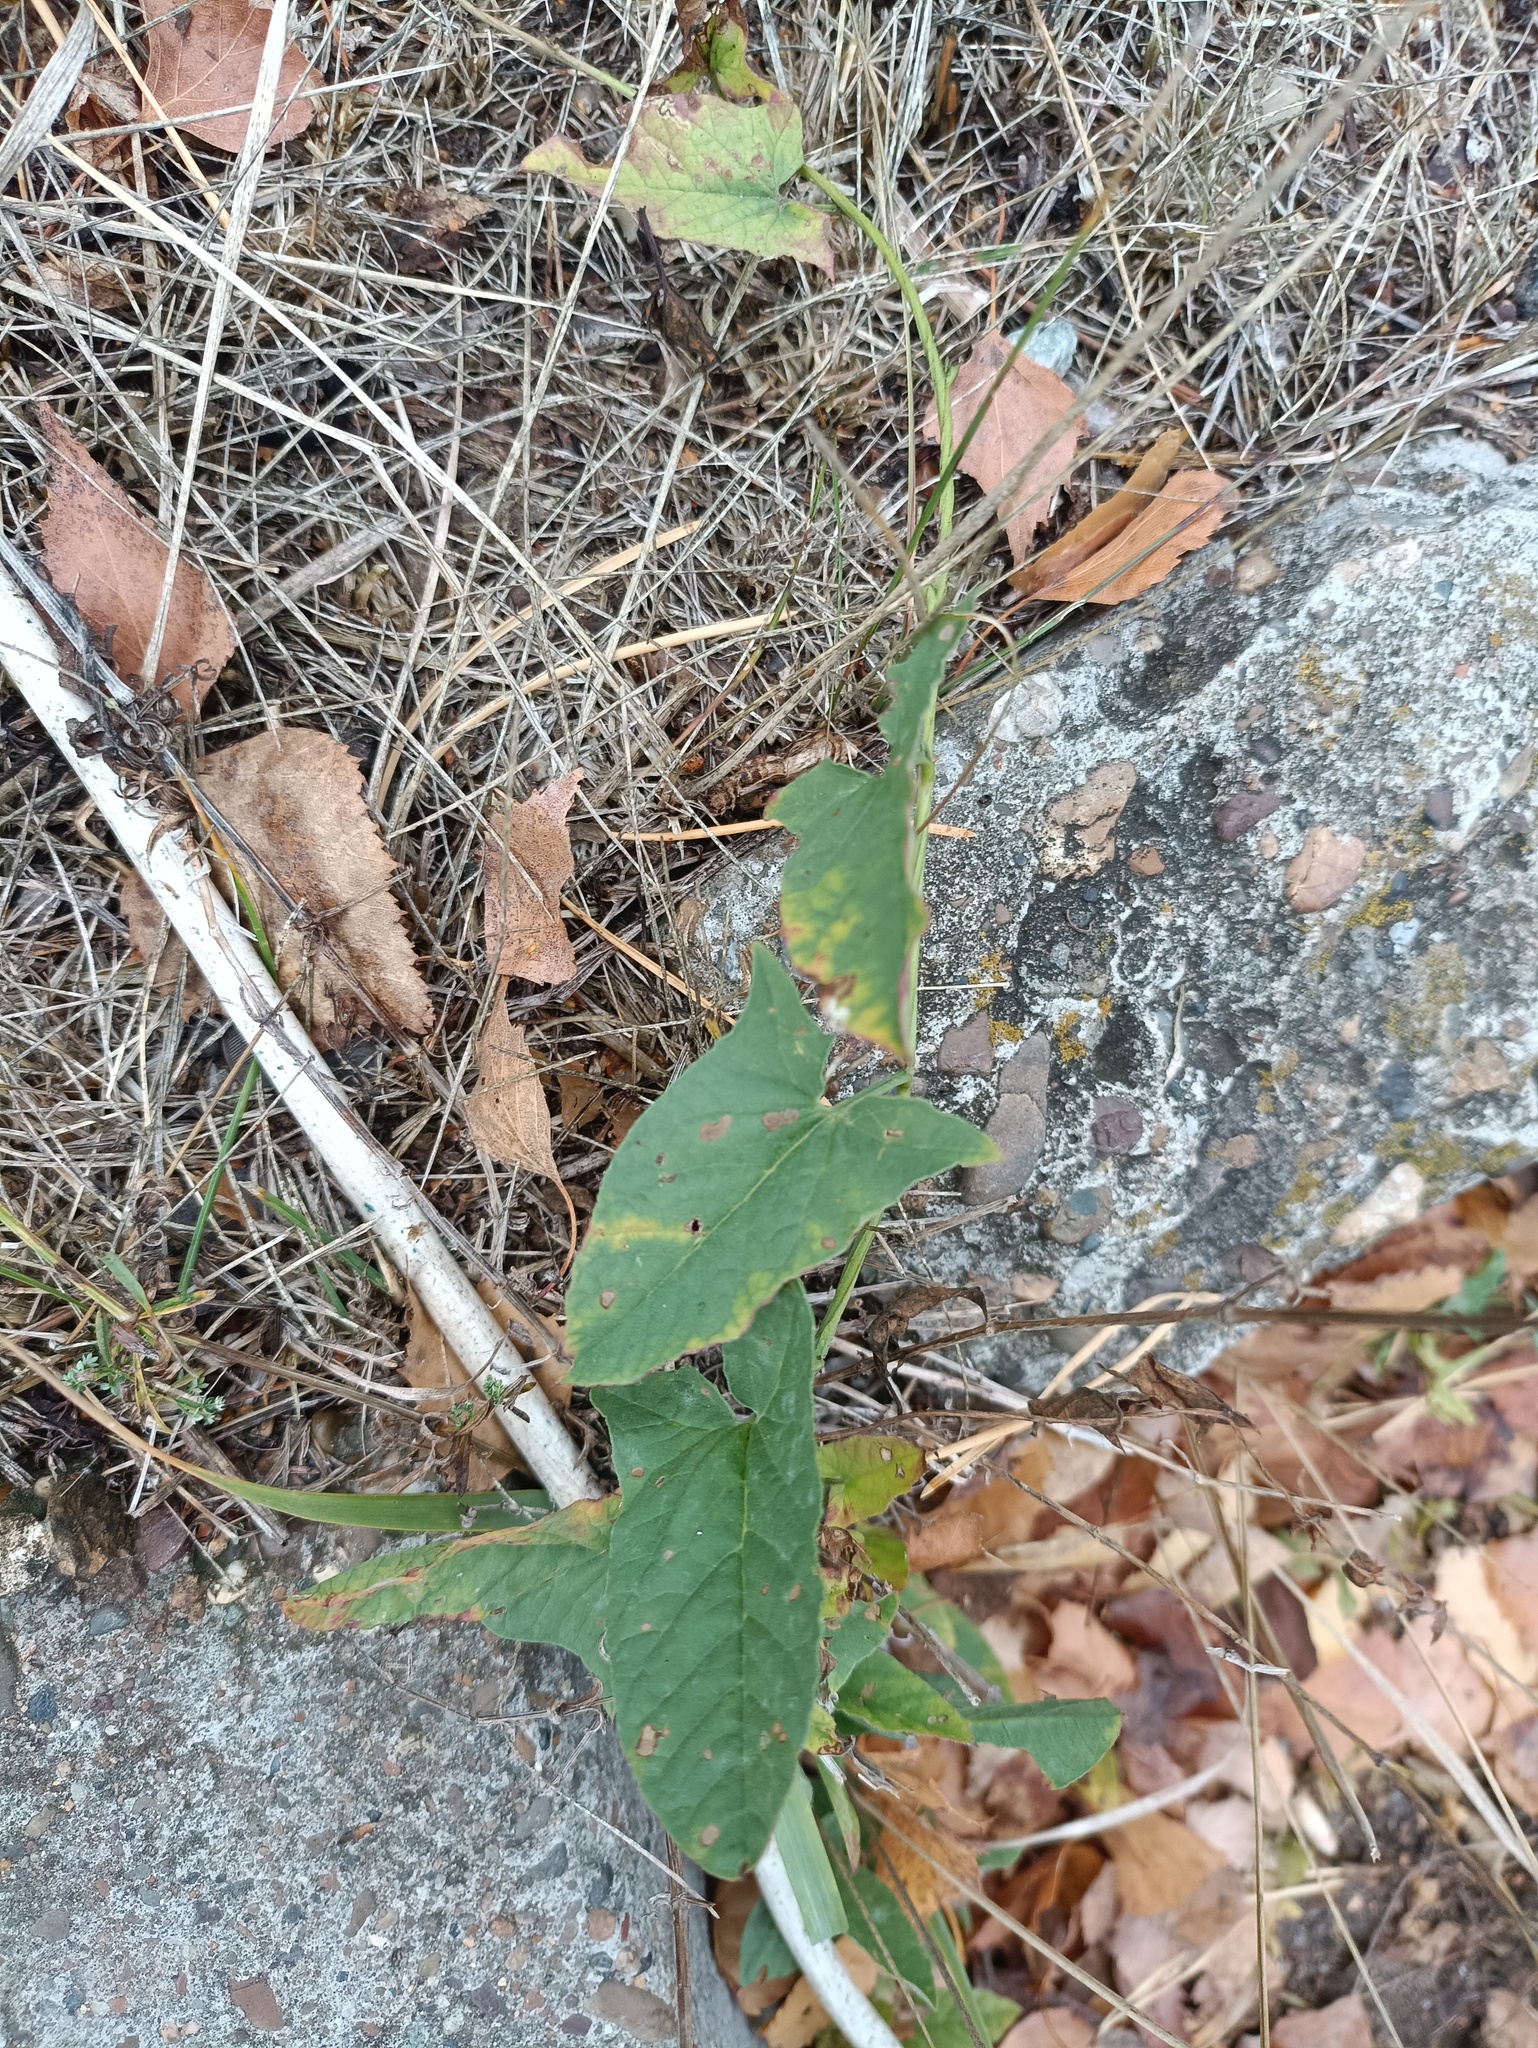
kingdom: Plantae
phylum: Tracheophyta
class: Magnoliopsida
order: Solanales
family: Convolvulaceae
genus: Convolvulus
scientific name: Convolvulus arvensis
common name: Field bindweed
